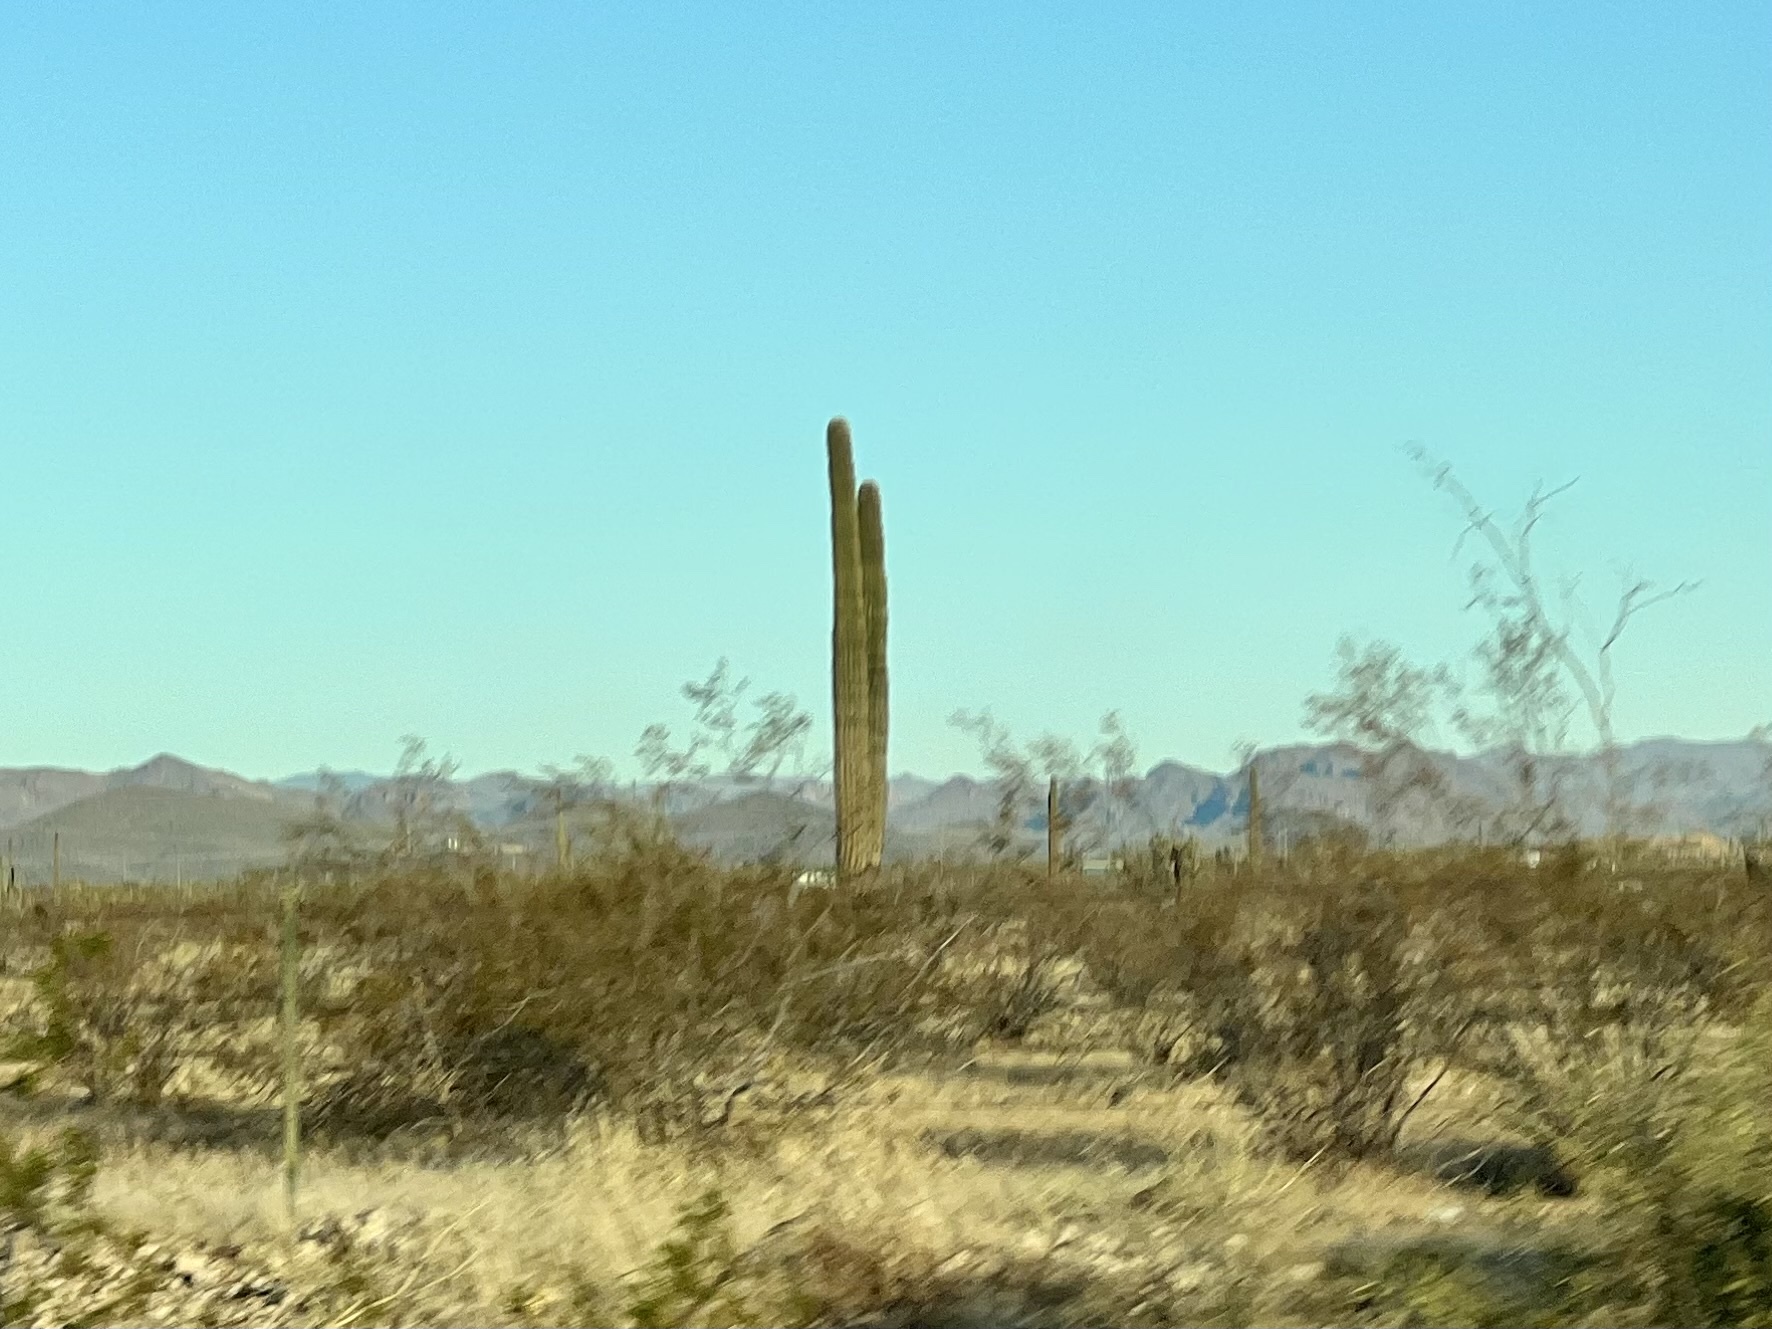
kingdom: Plantae
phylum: Tracheophyta
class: Magnoliopsida
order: Caryophyllales
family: Cactaceae
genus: Carnegiea
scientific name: Carnegiea gigantea
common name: Saguaro
